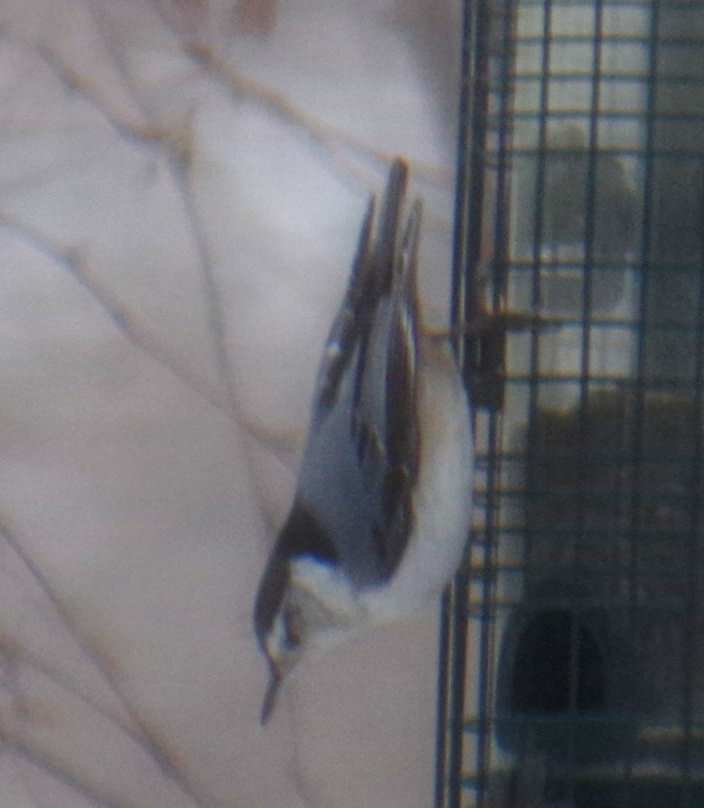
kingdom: Animalia
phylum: Chordata
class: Aves
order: Passeriformes
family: Sittidae
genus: Sitta
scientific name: Sitta carolinensis
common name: White-breasted nuthatch
